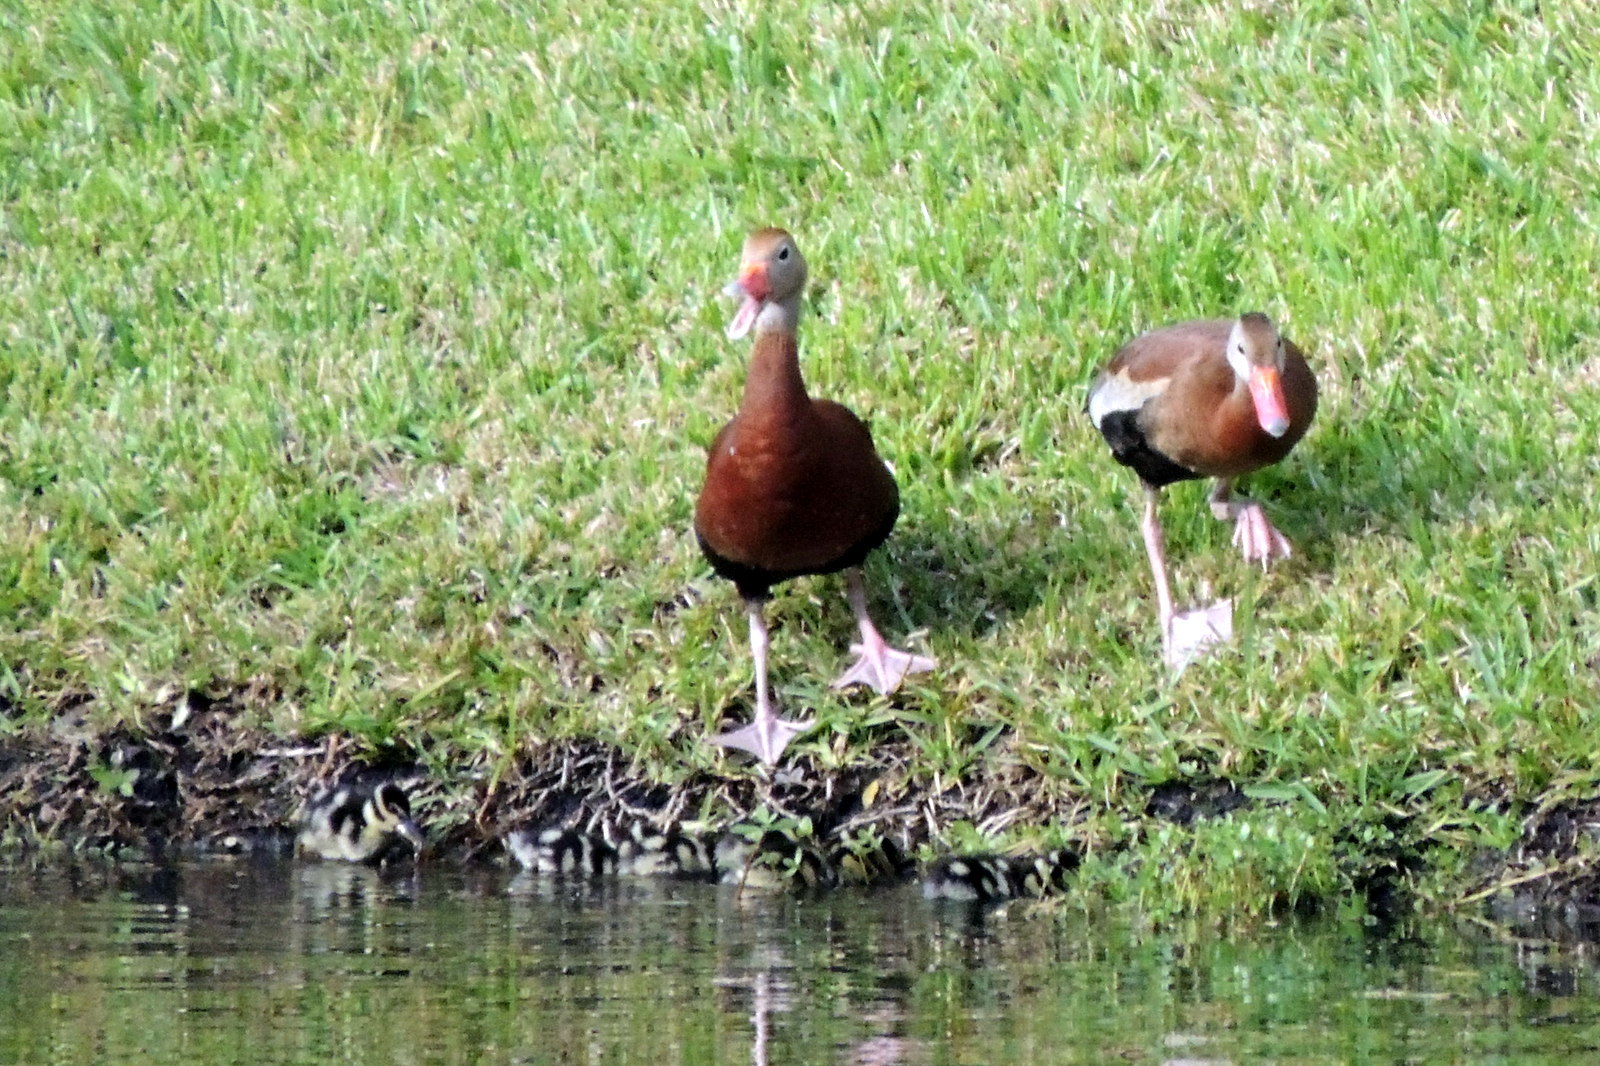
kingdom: Animalia
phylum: Chordata
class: Aves
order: Anseriformes
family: Anatidae
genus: Dendrocygna
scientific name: Dendrocygna autumnalis
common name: Black-bellied whistling duck
